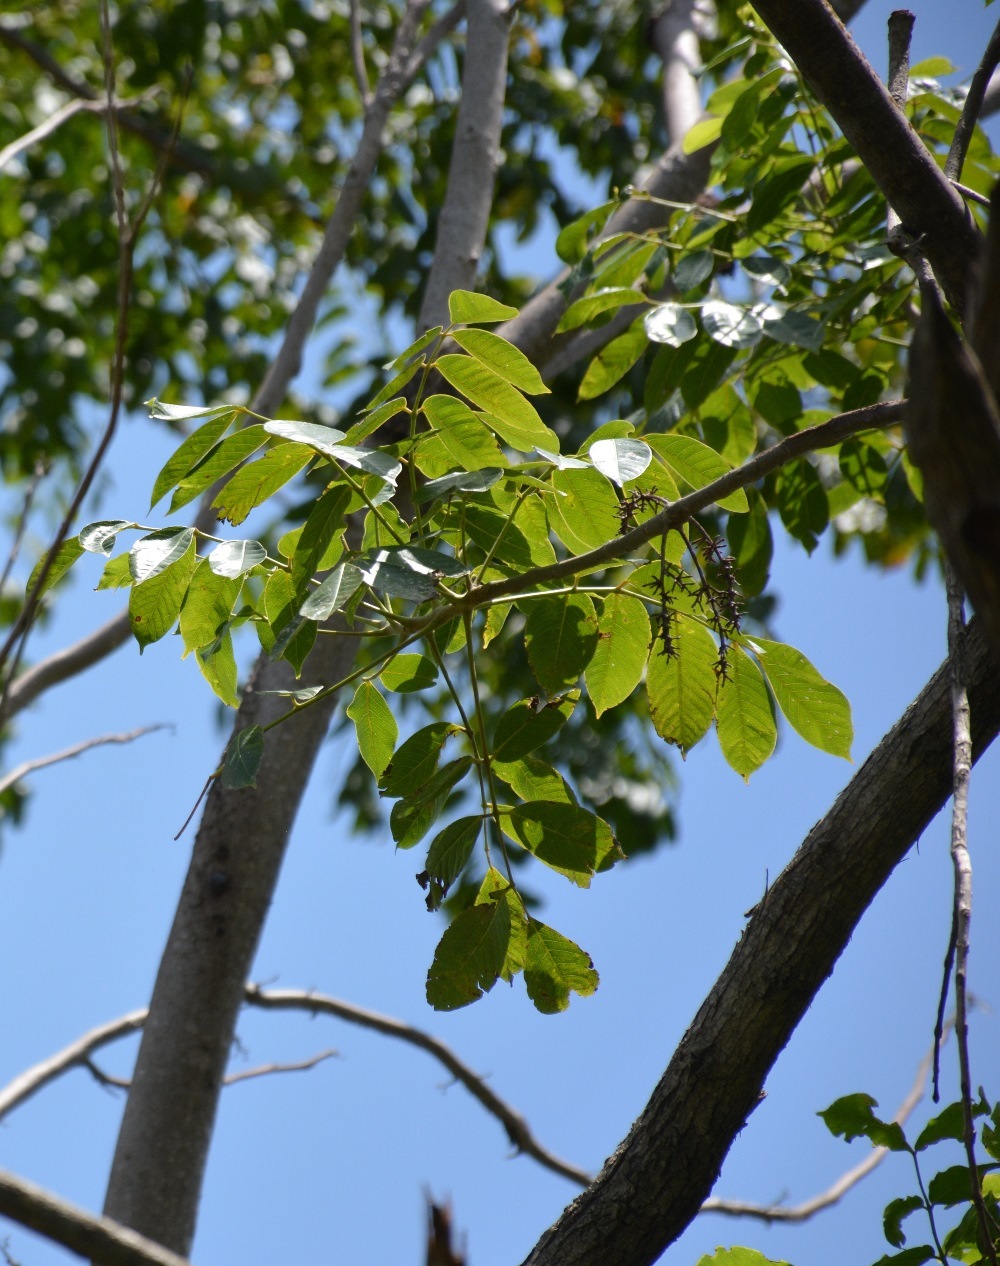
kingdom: Plantae
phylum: Tracheophyta
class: Magnoliopsida
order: Sapindales
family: Meliaceae
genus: Cedrela
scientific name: Cedrela odorata
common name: Red cedar
